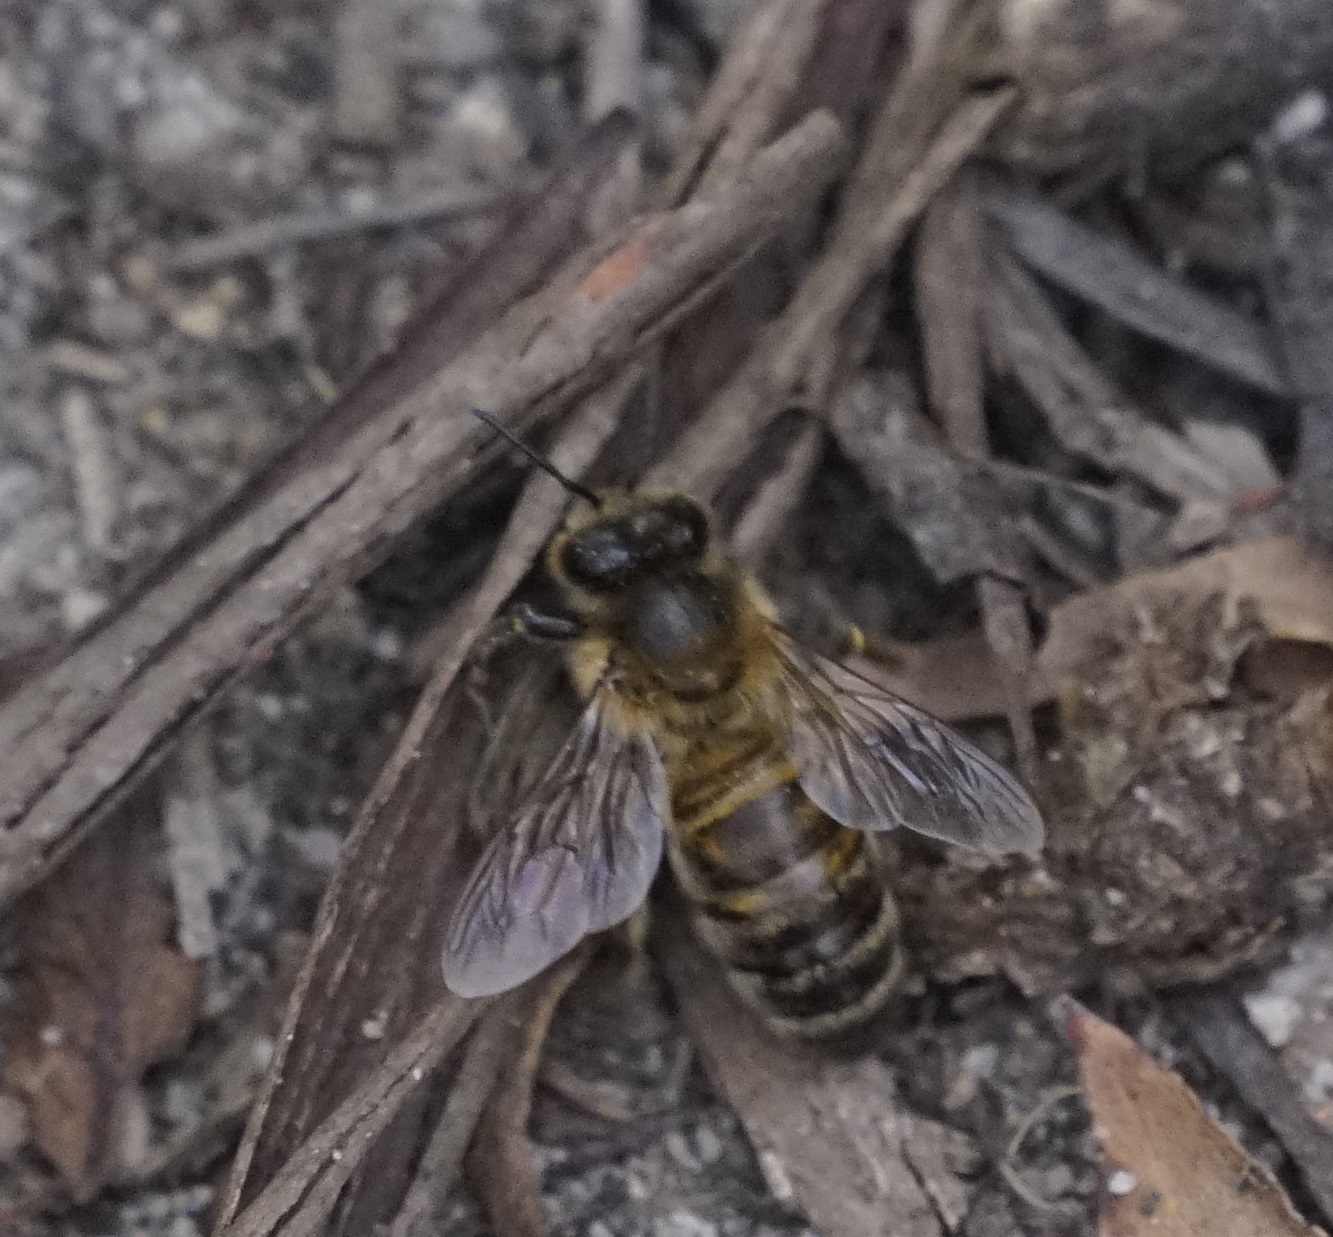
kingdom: Animalia
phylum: Arthropoda
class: Insecta
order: Hymenoptera
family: Apidae
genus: Apis
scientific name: Apis mellifera
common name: Honey bee
